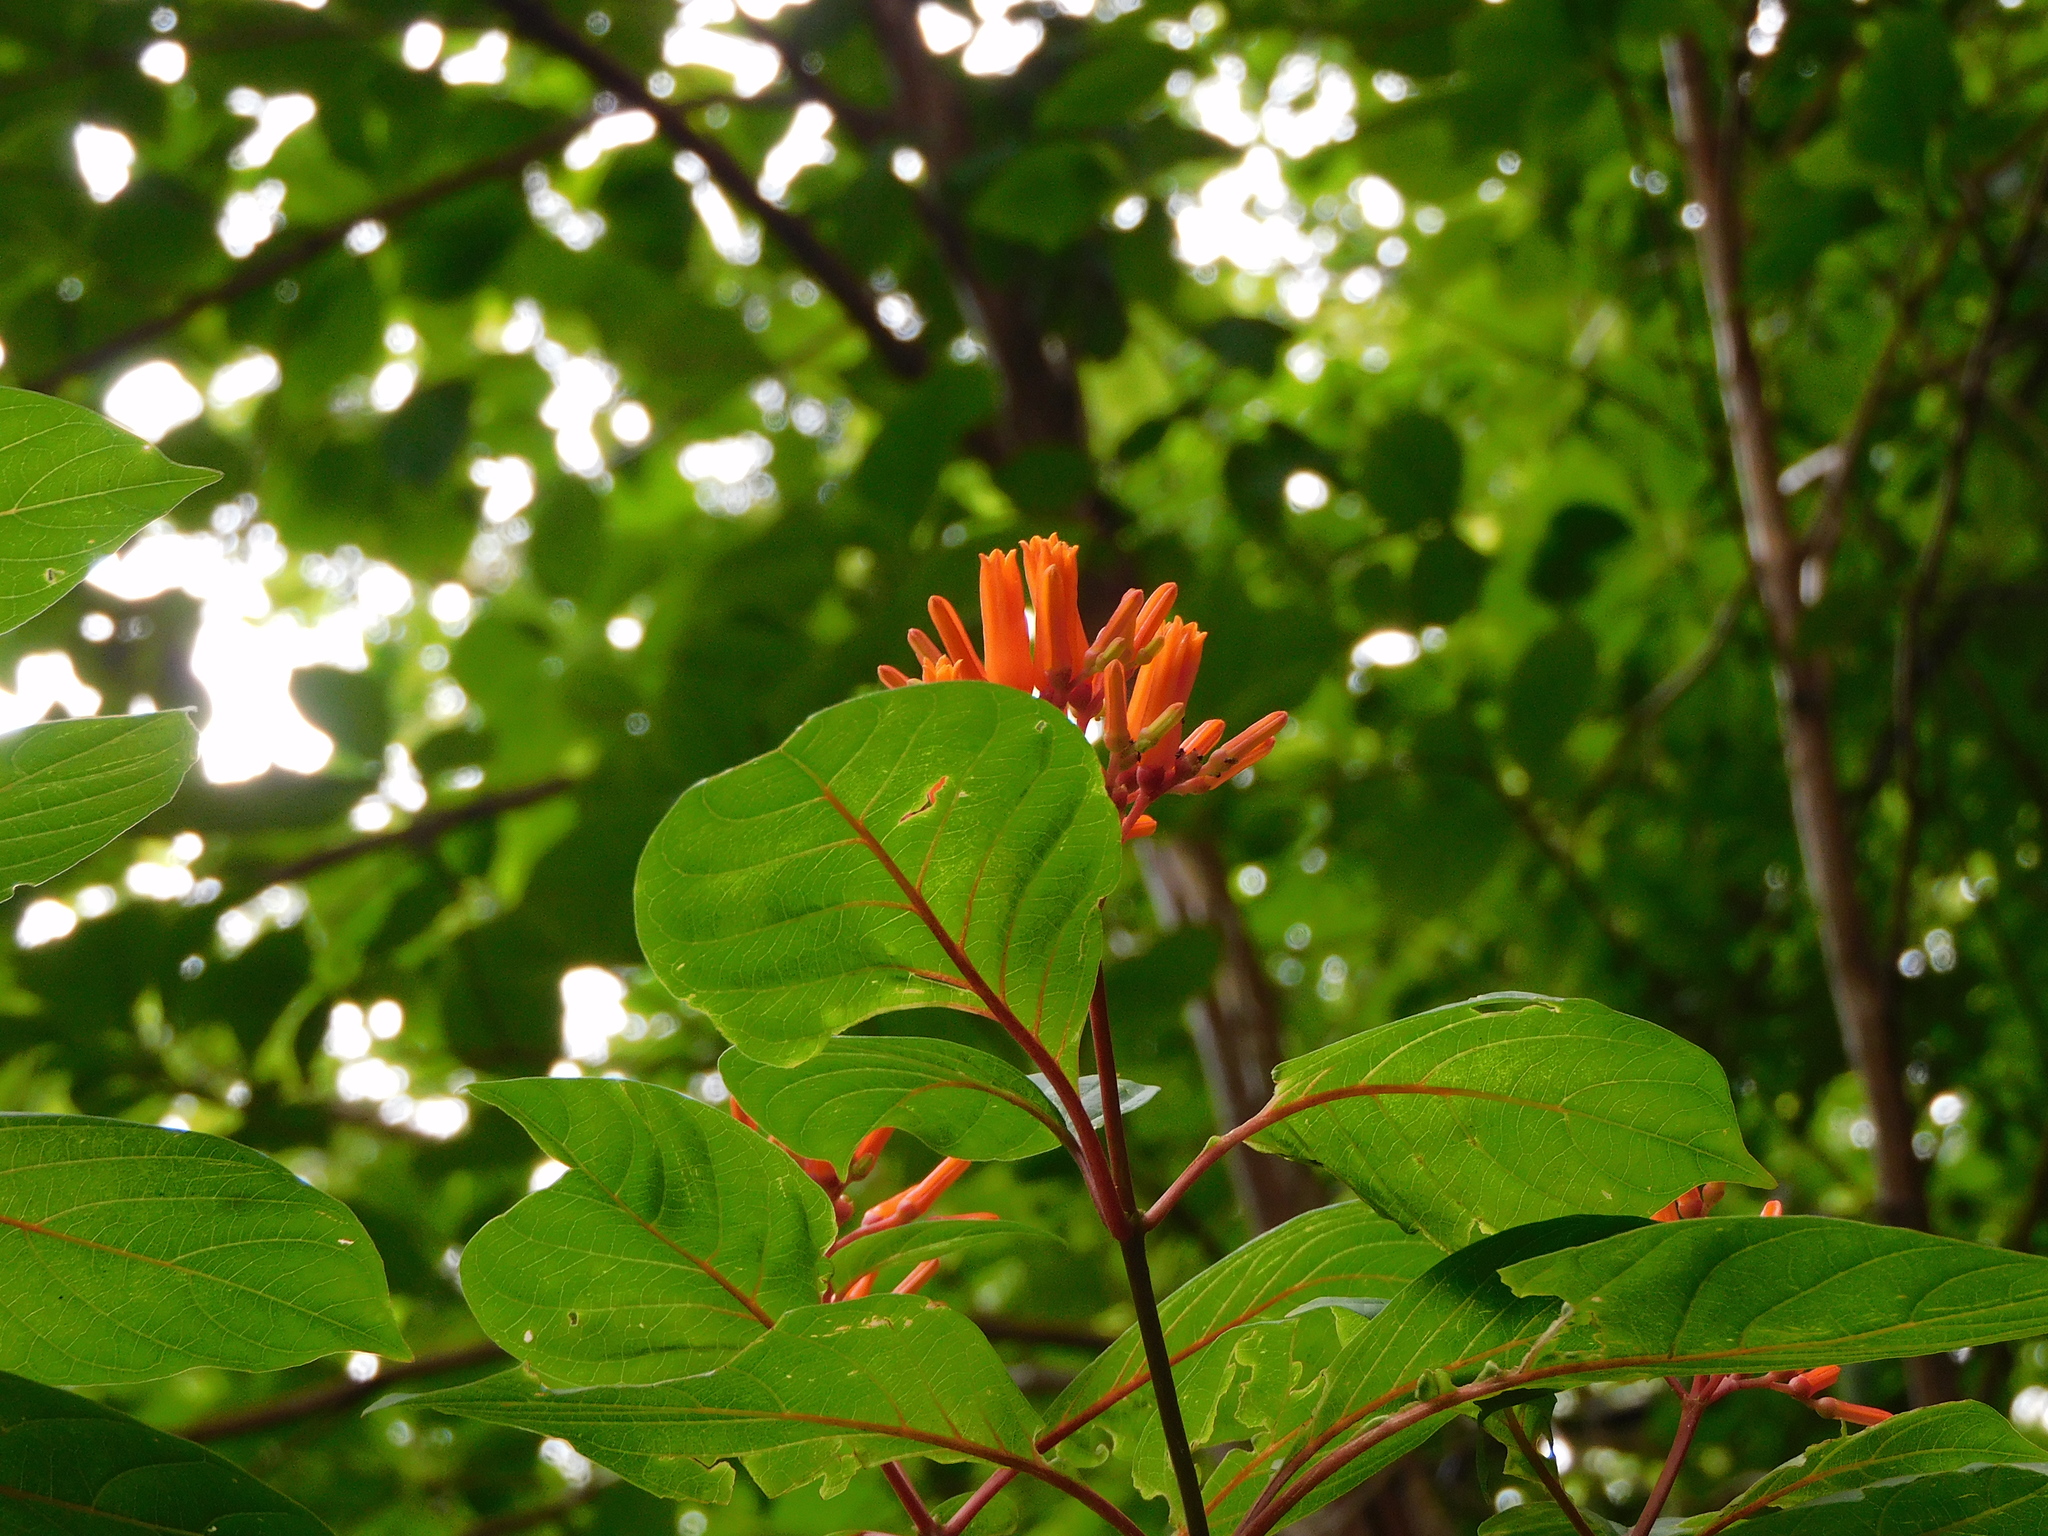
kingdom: Plantae
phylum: Tracheophyta
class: Magnoliopsida
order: Gentianales
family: Rubiaceae
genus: Hamelia
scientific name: Hamelia patens
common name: Redhead
